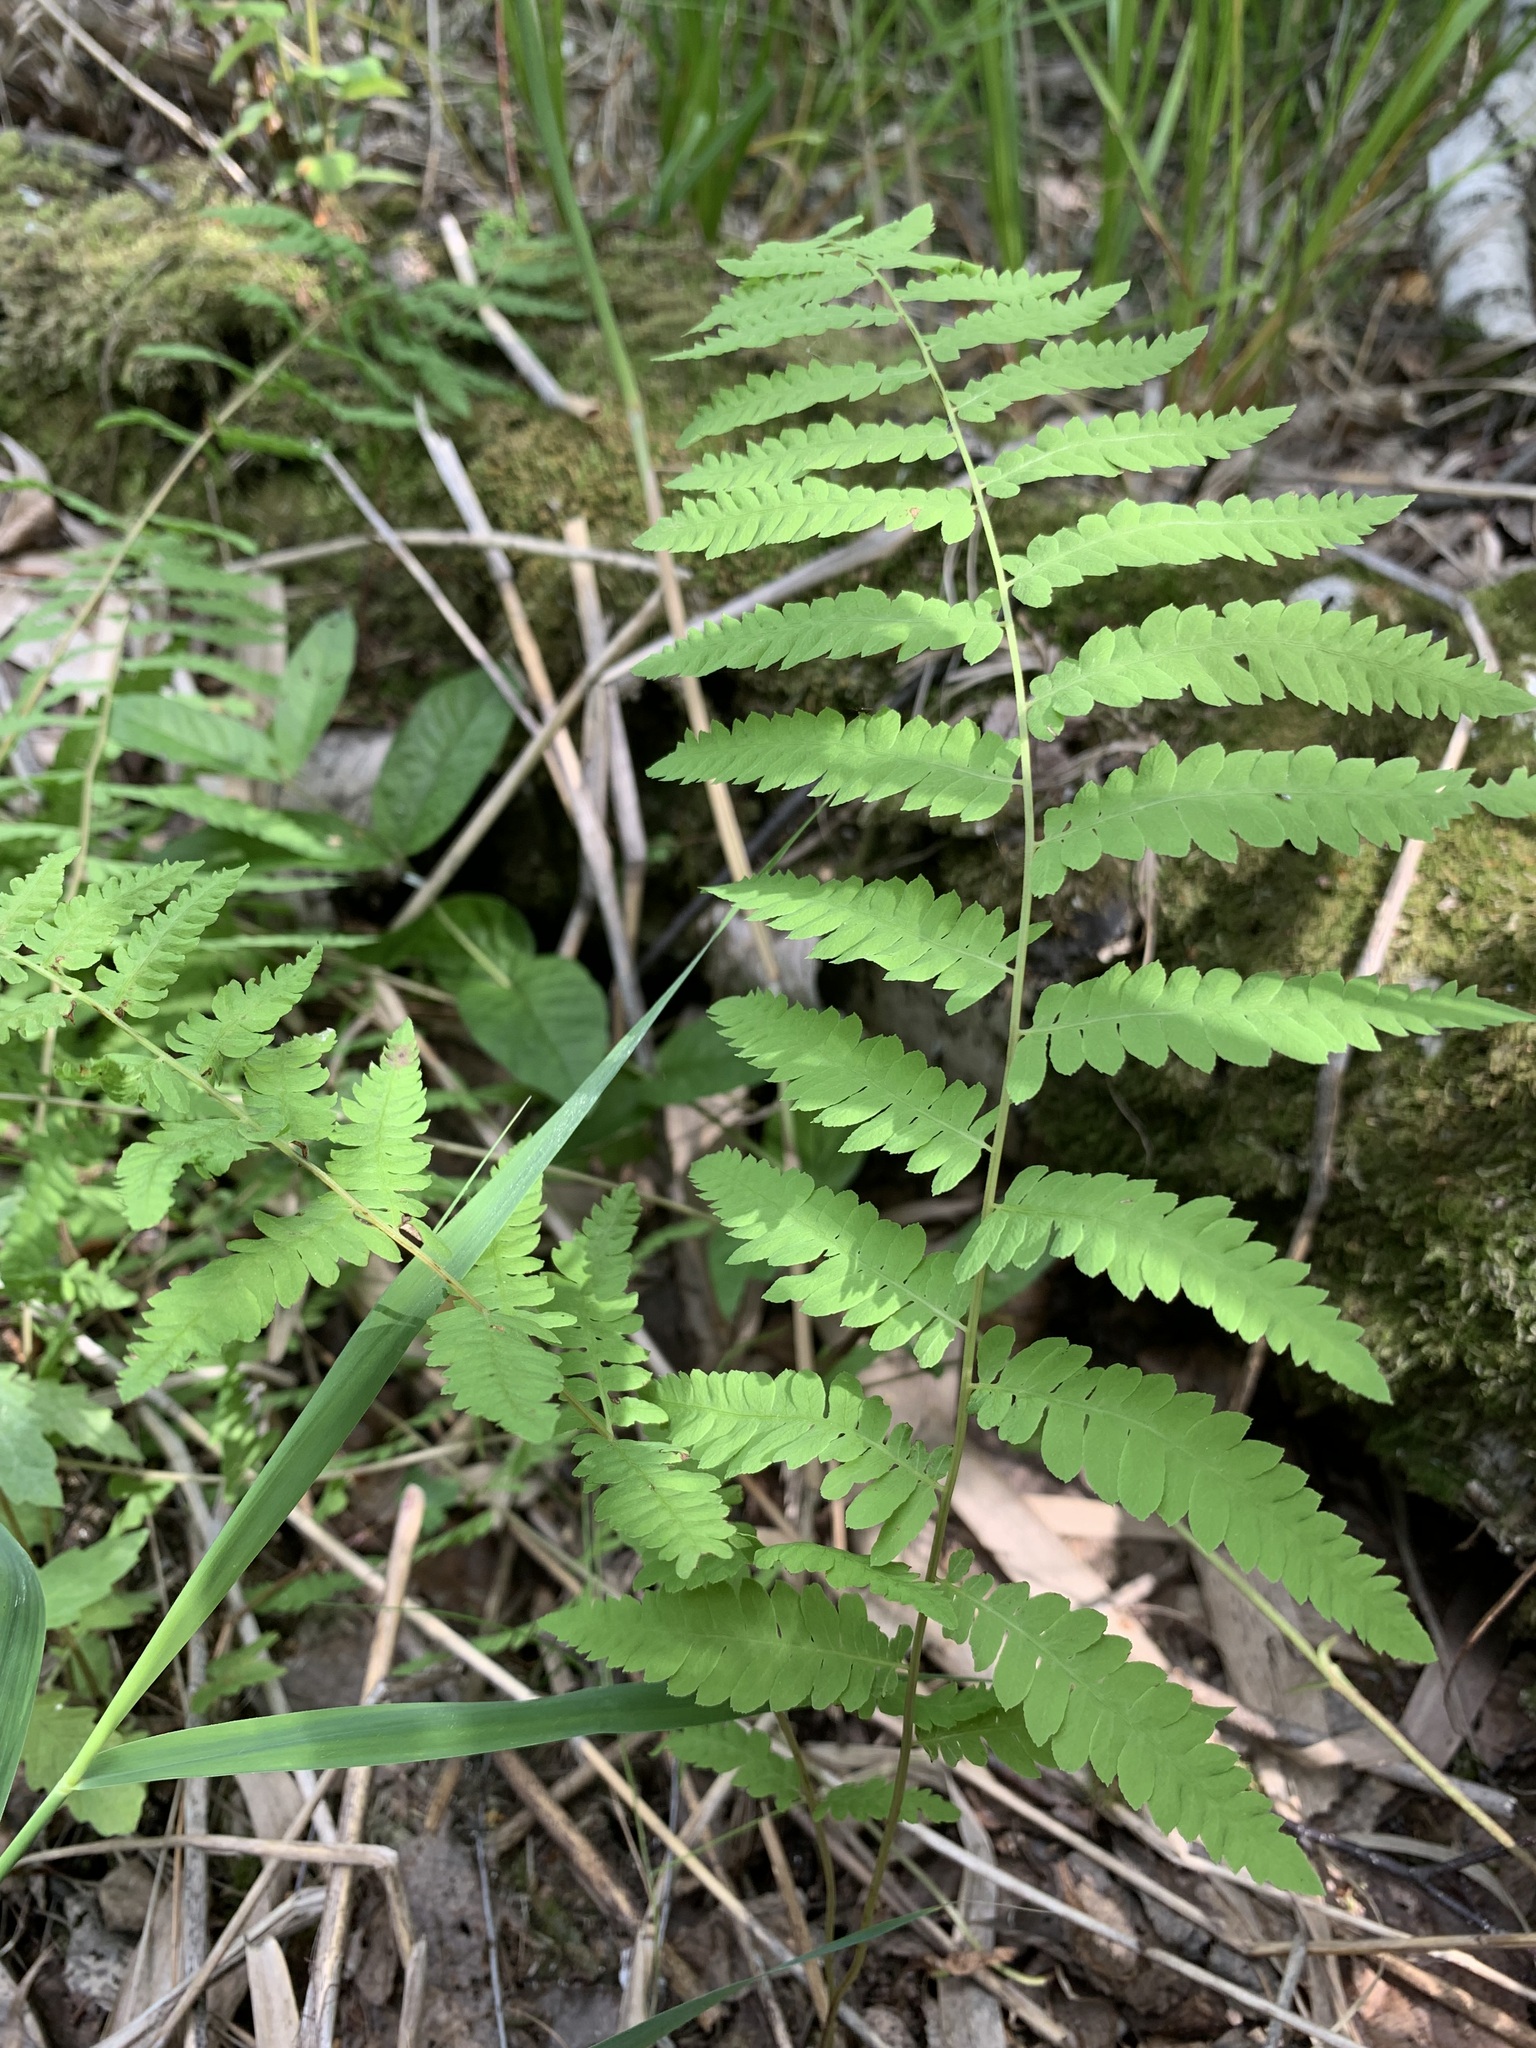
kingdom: Plantae
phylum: Tracheophyta
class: Polypodiopsida
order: Polypodiales
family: Thelypteridaceae
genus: Thelypteris
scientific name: Thelypteris palustris
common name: Marsh fern
